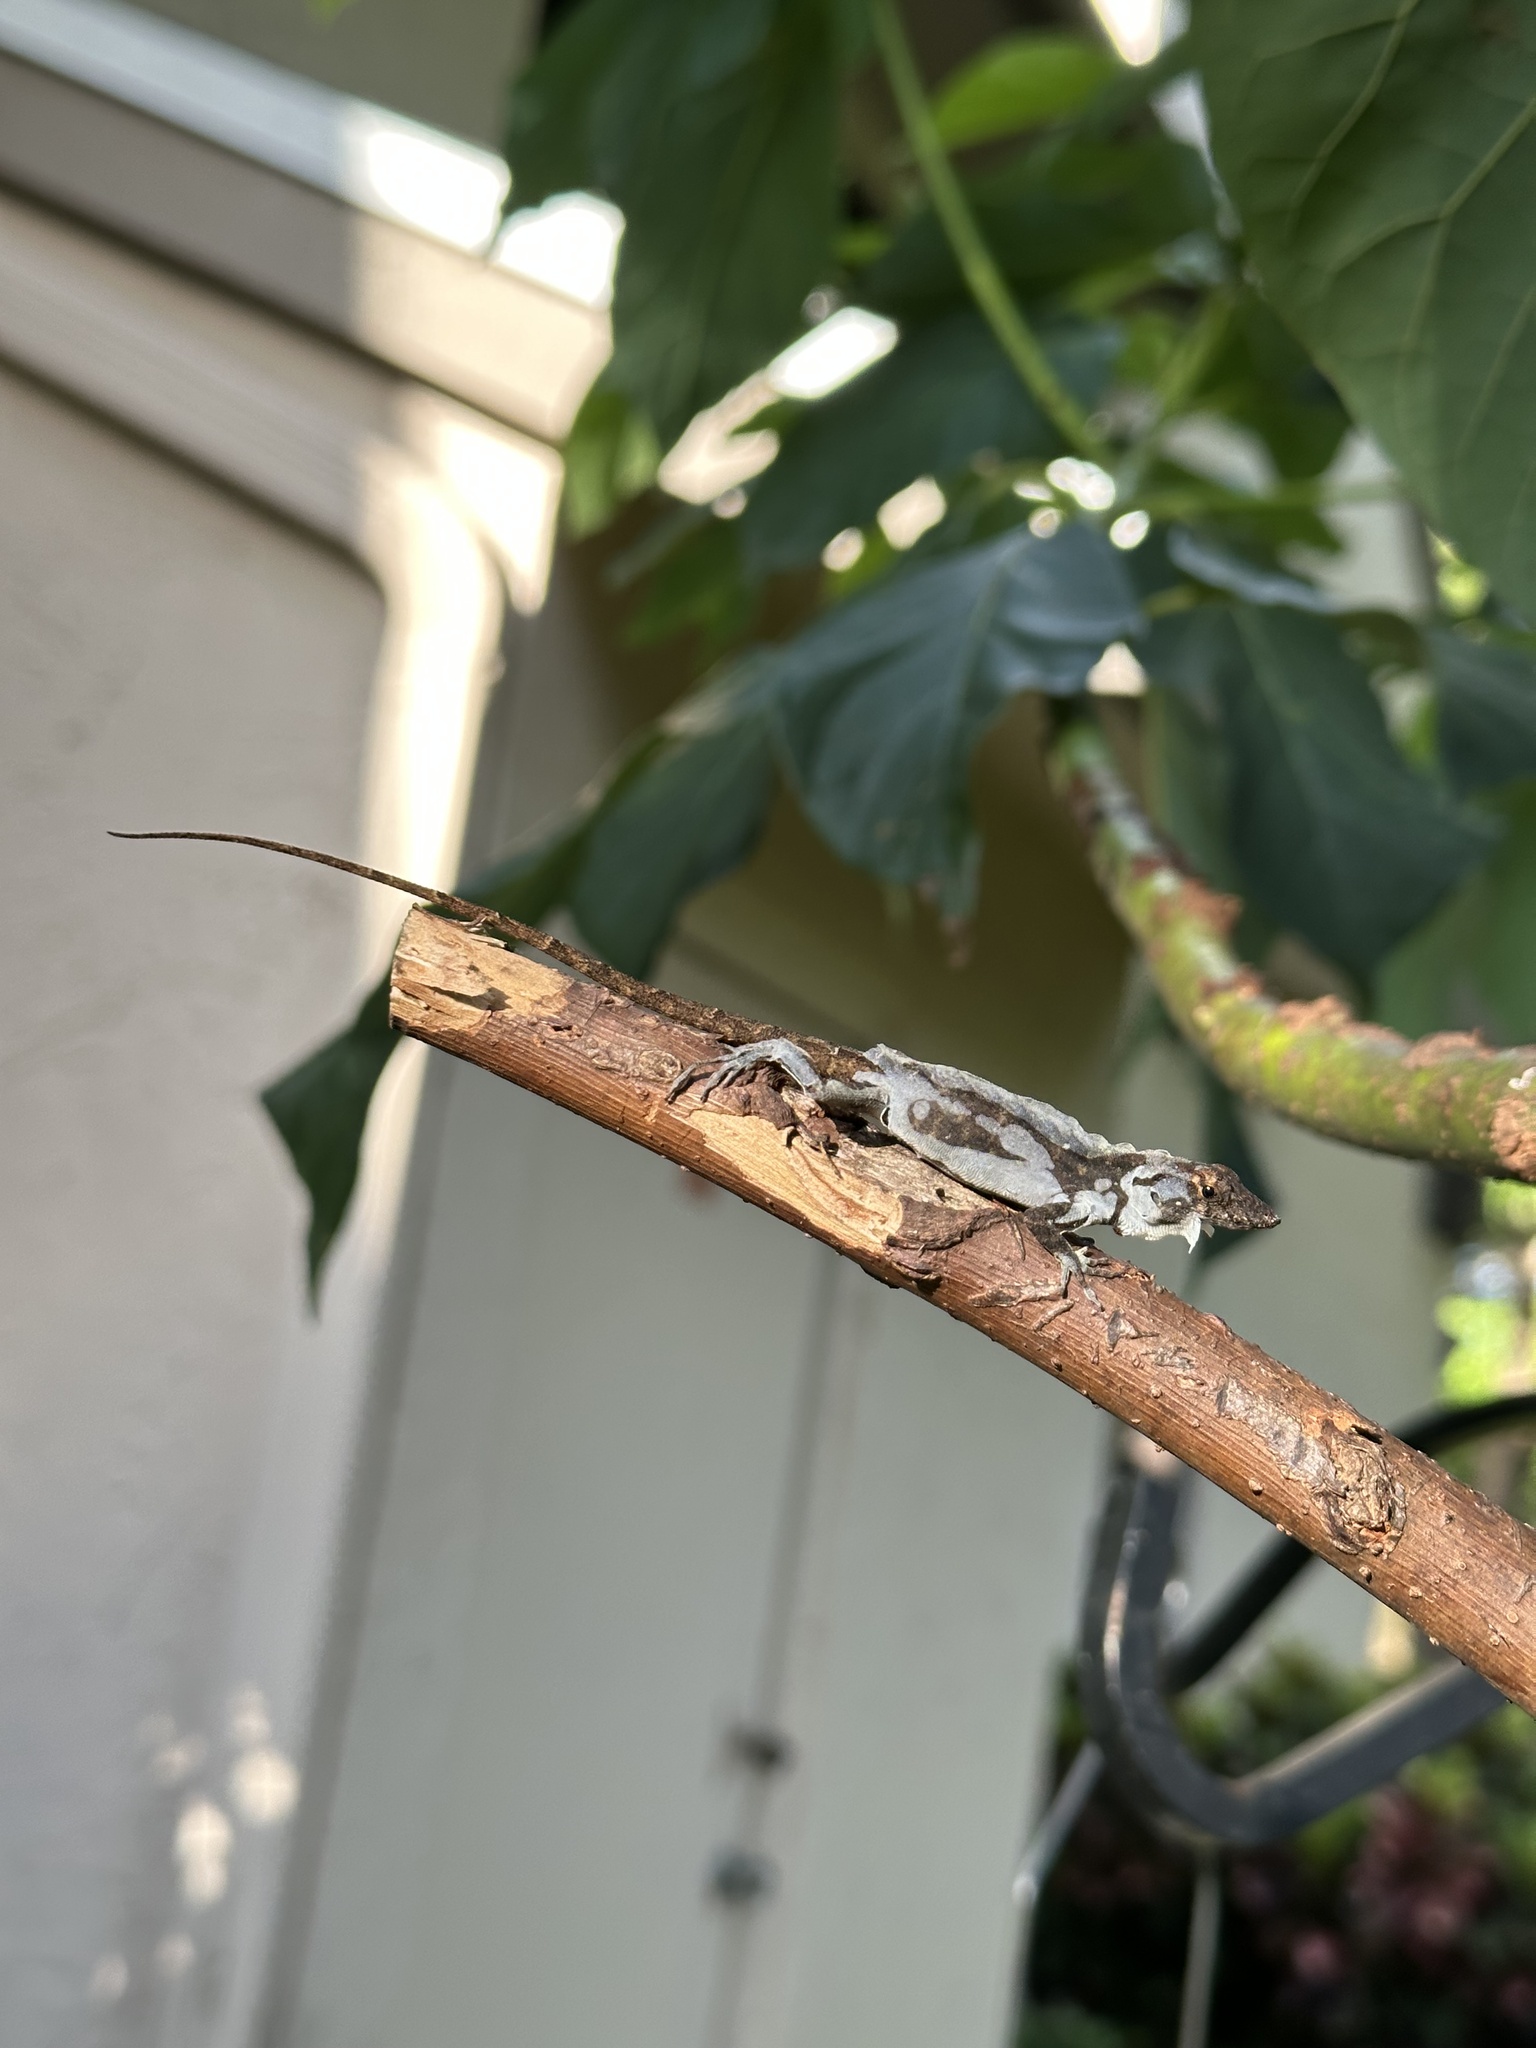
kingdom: Animalia
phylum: Chordata
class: Squamata
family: Dactyloidae
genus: Anolis
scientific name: Anolis sagrei
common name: Brown anole
